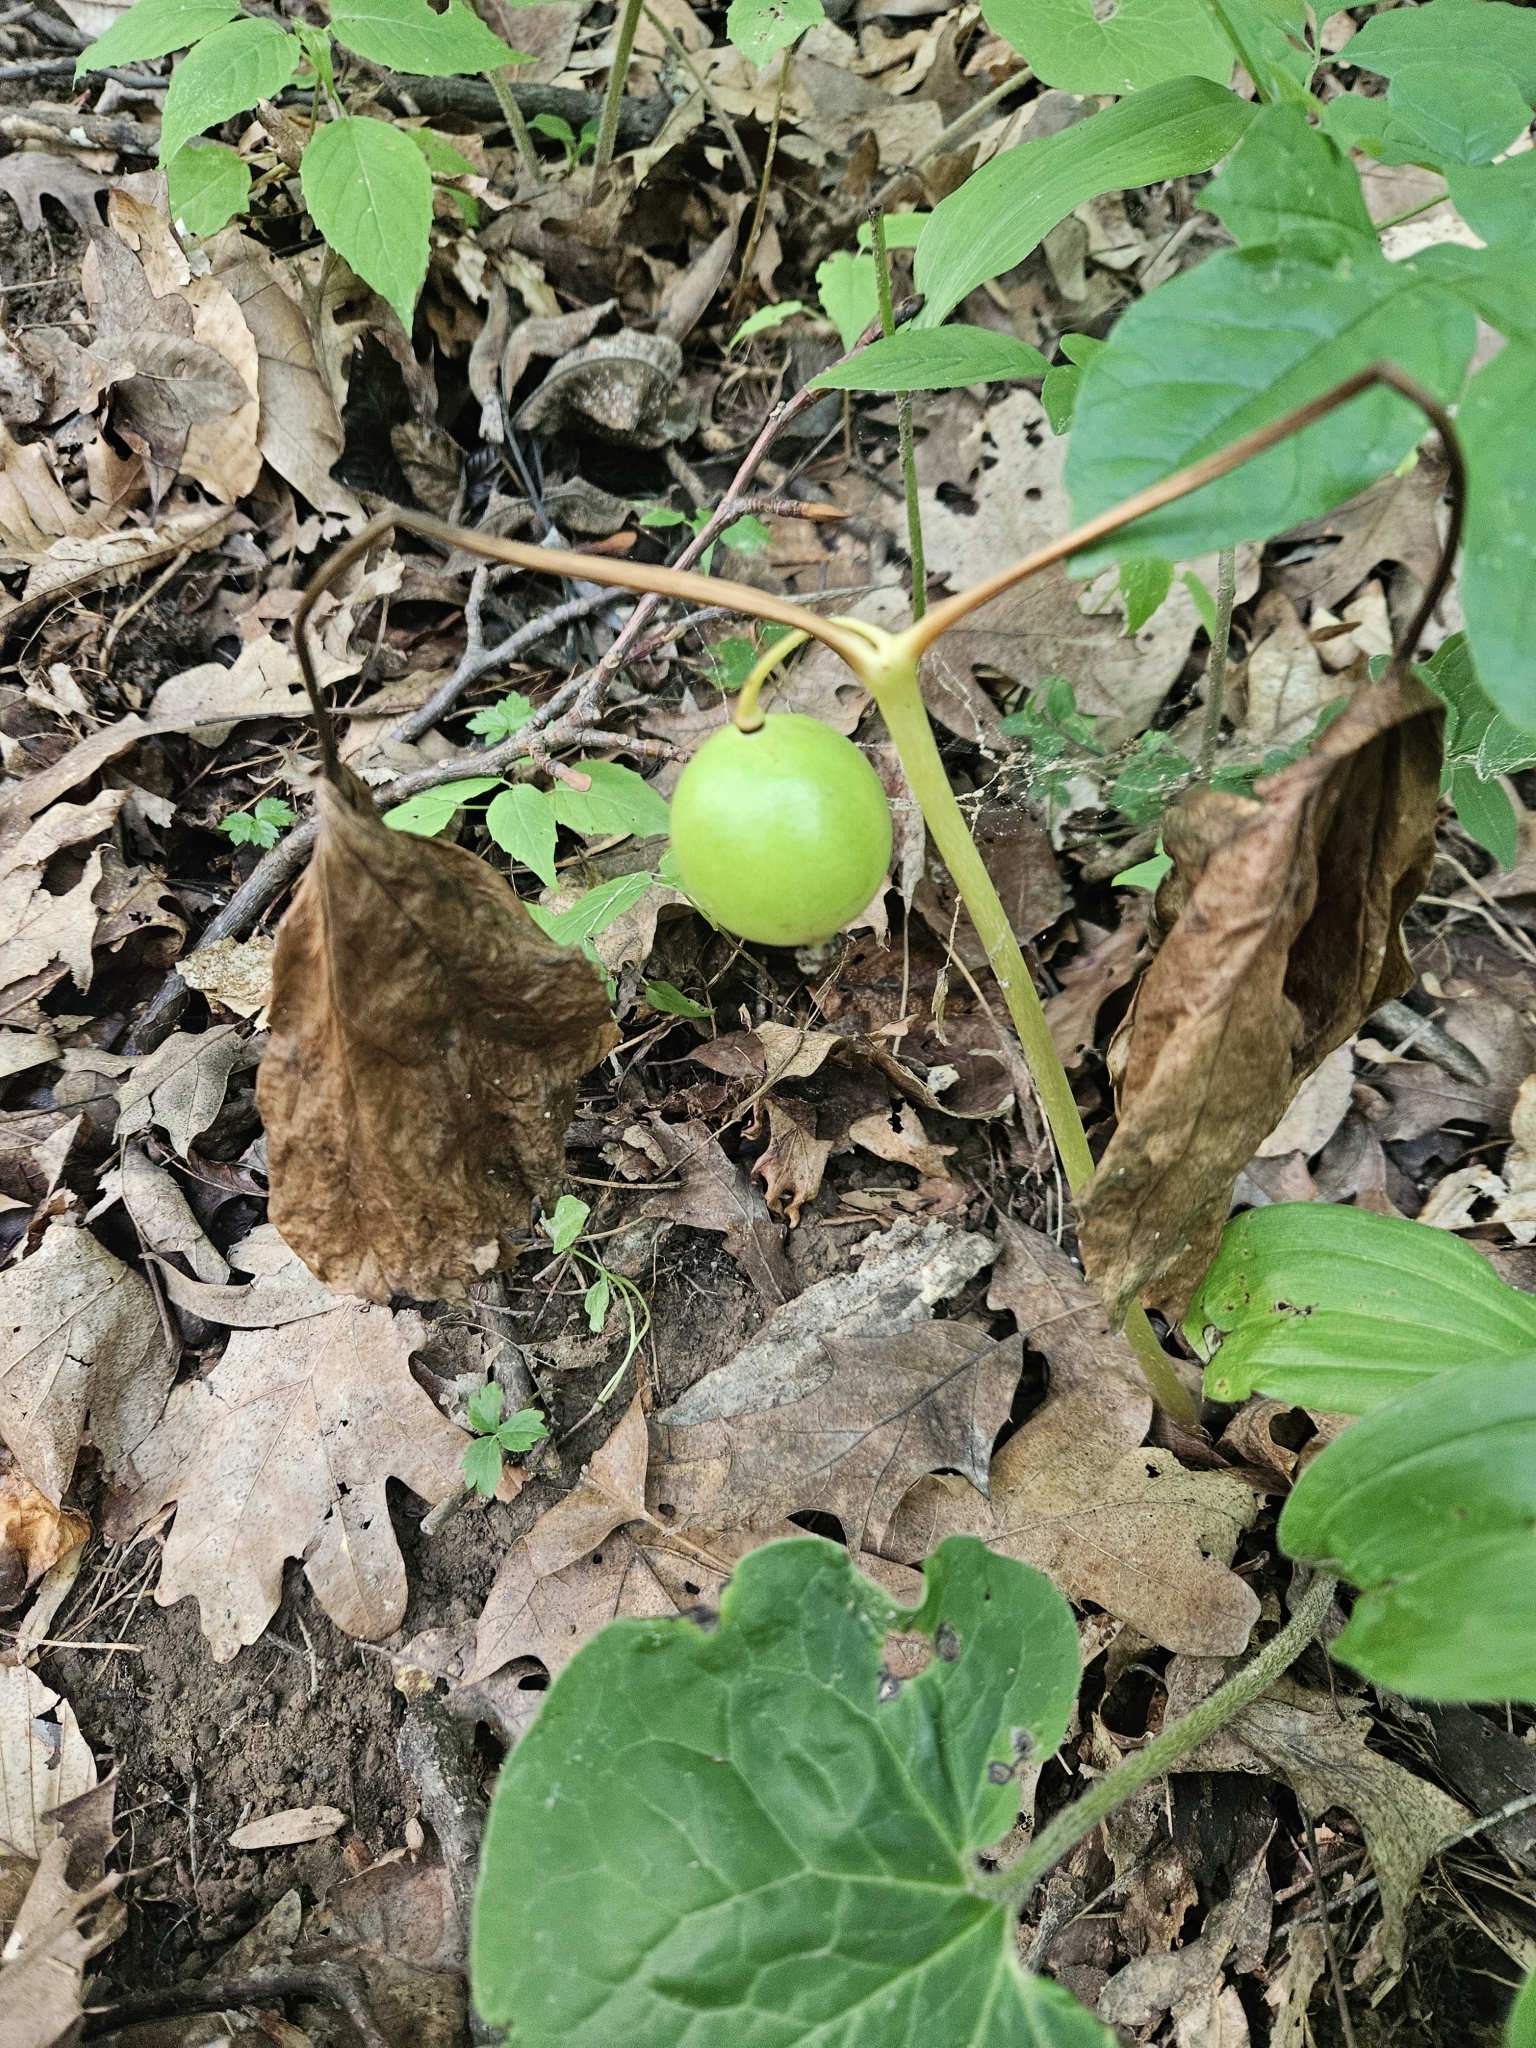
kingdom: Plantae
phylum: Tracheophyta
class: Magnoliopsida
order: Ranunculales
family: Berberidaceae
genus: Podophyllum
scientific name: Podophyllum peltatum
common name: Wild mandrake
